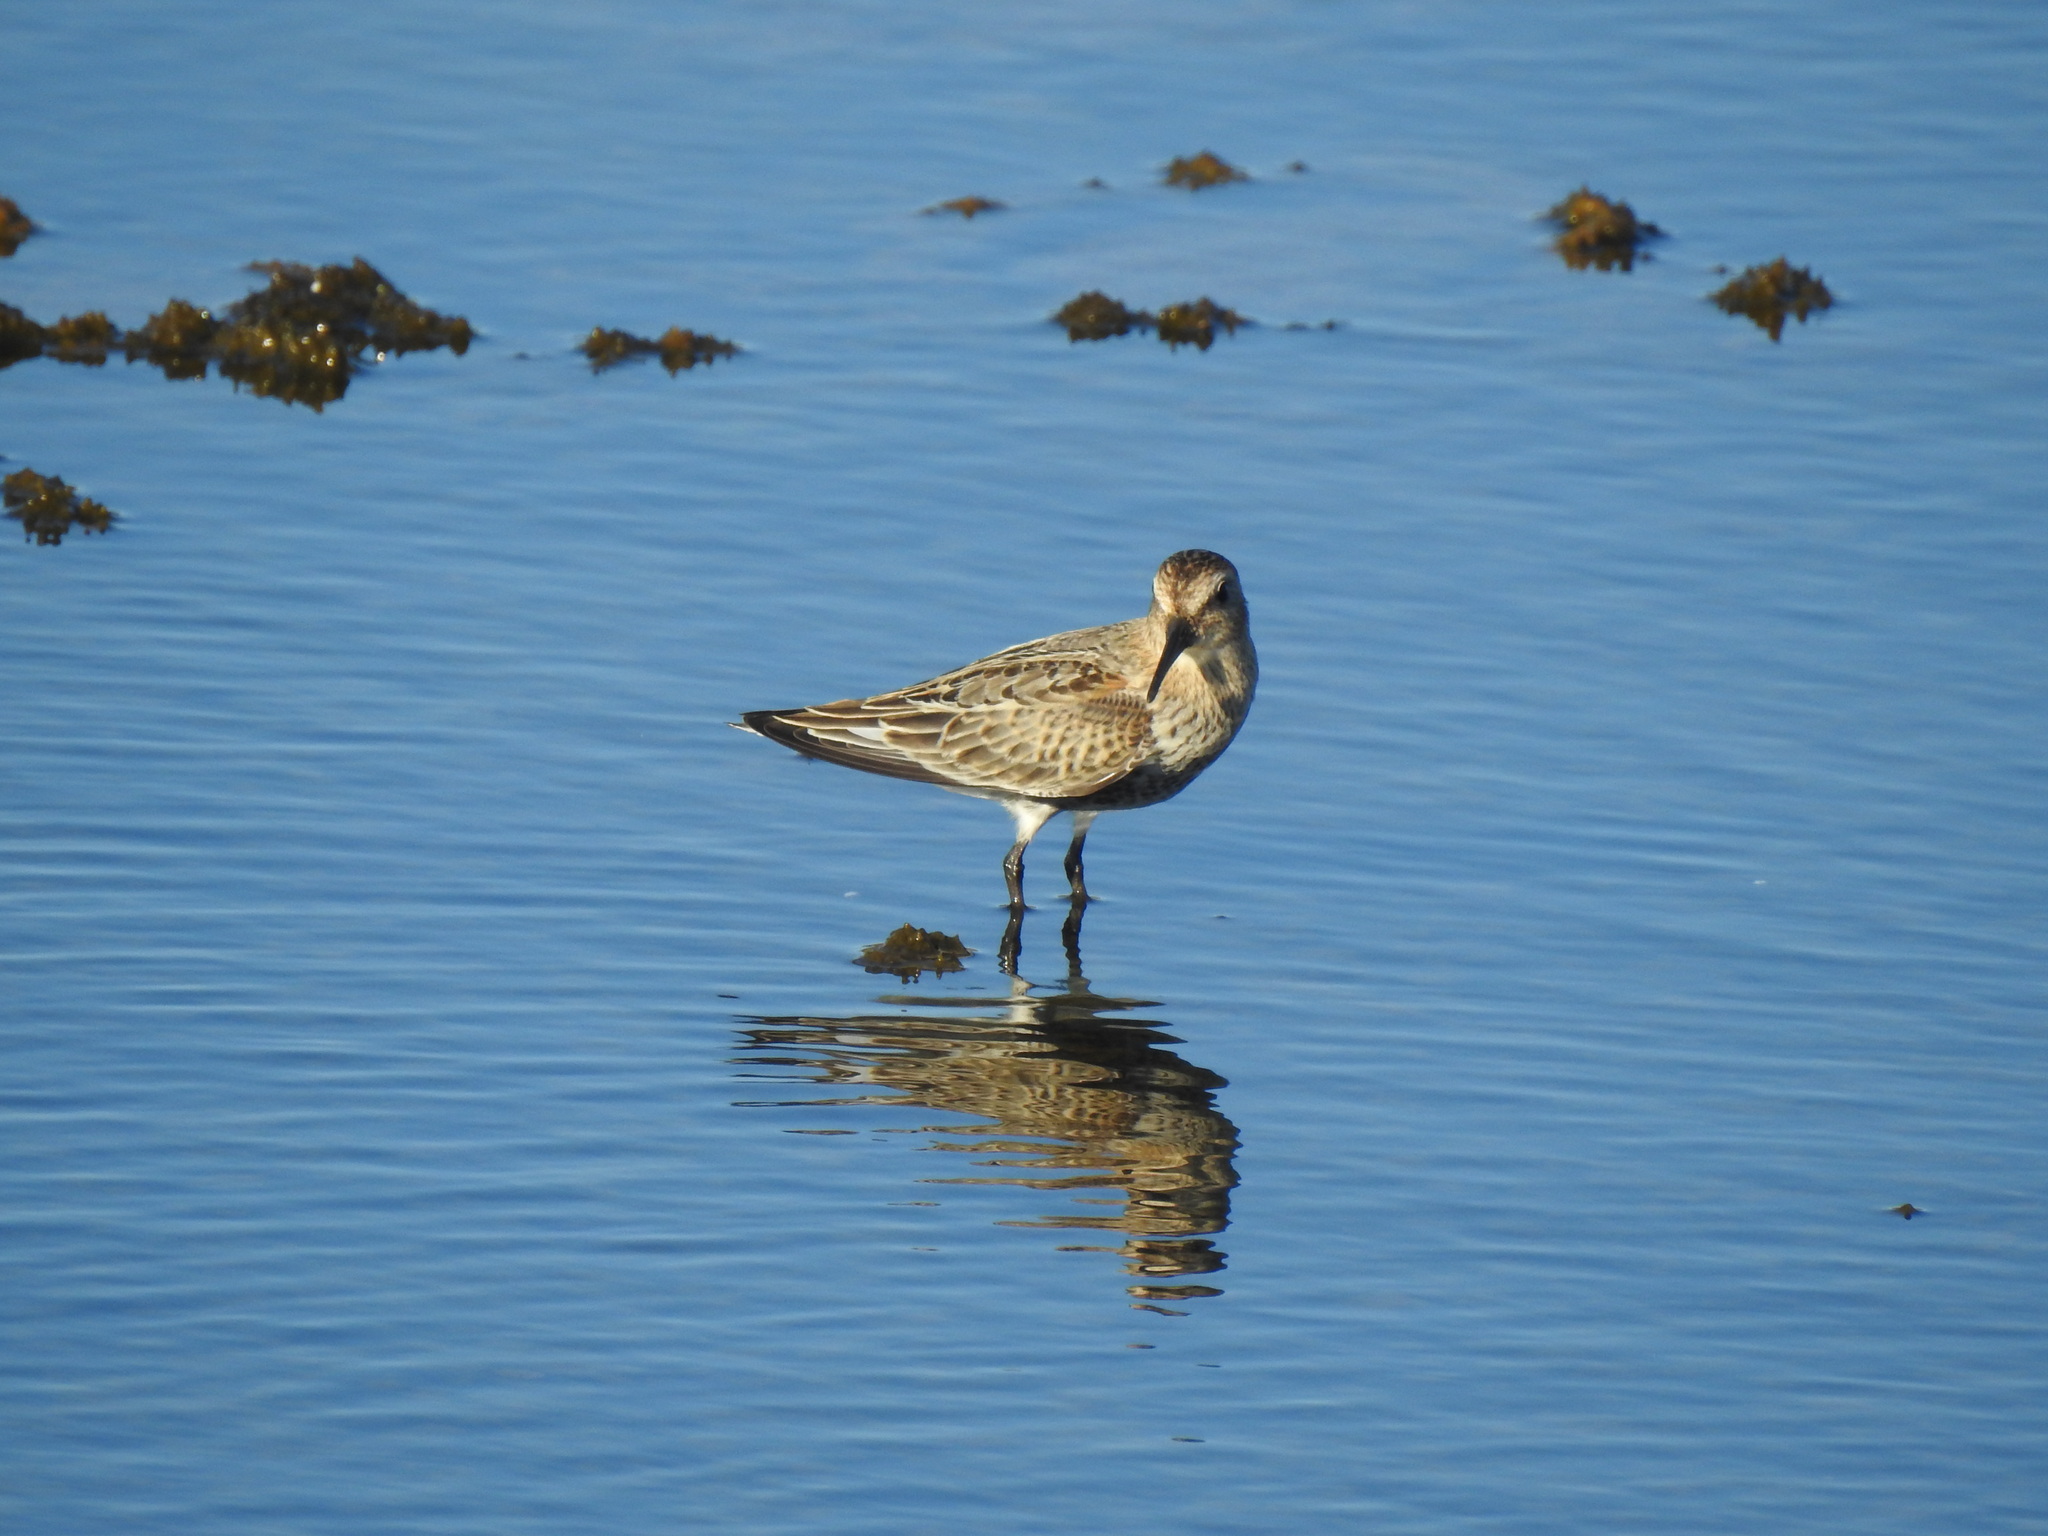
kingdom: Animalia
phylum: Chordata
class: Aves
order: Charadriiformes
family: Scolopacidae
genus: Calidris
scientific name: Calidris alpina
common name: Dunlin
